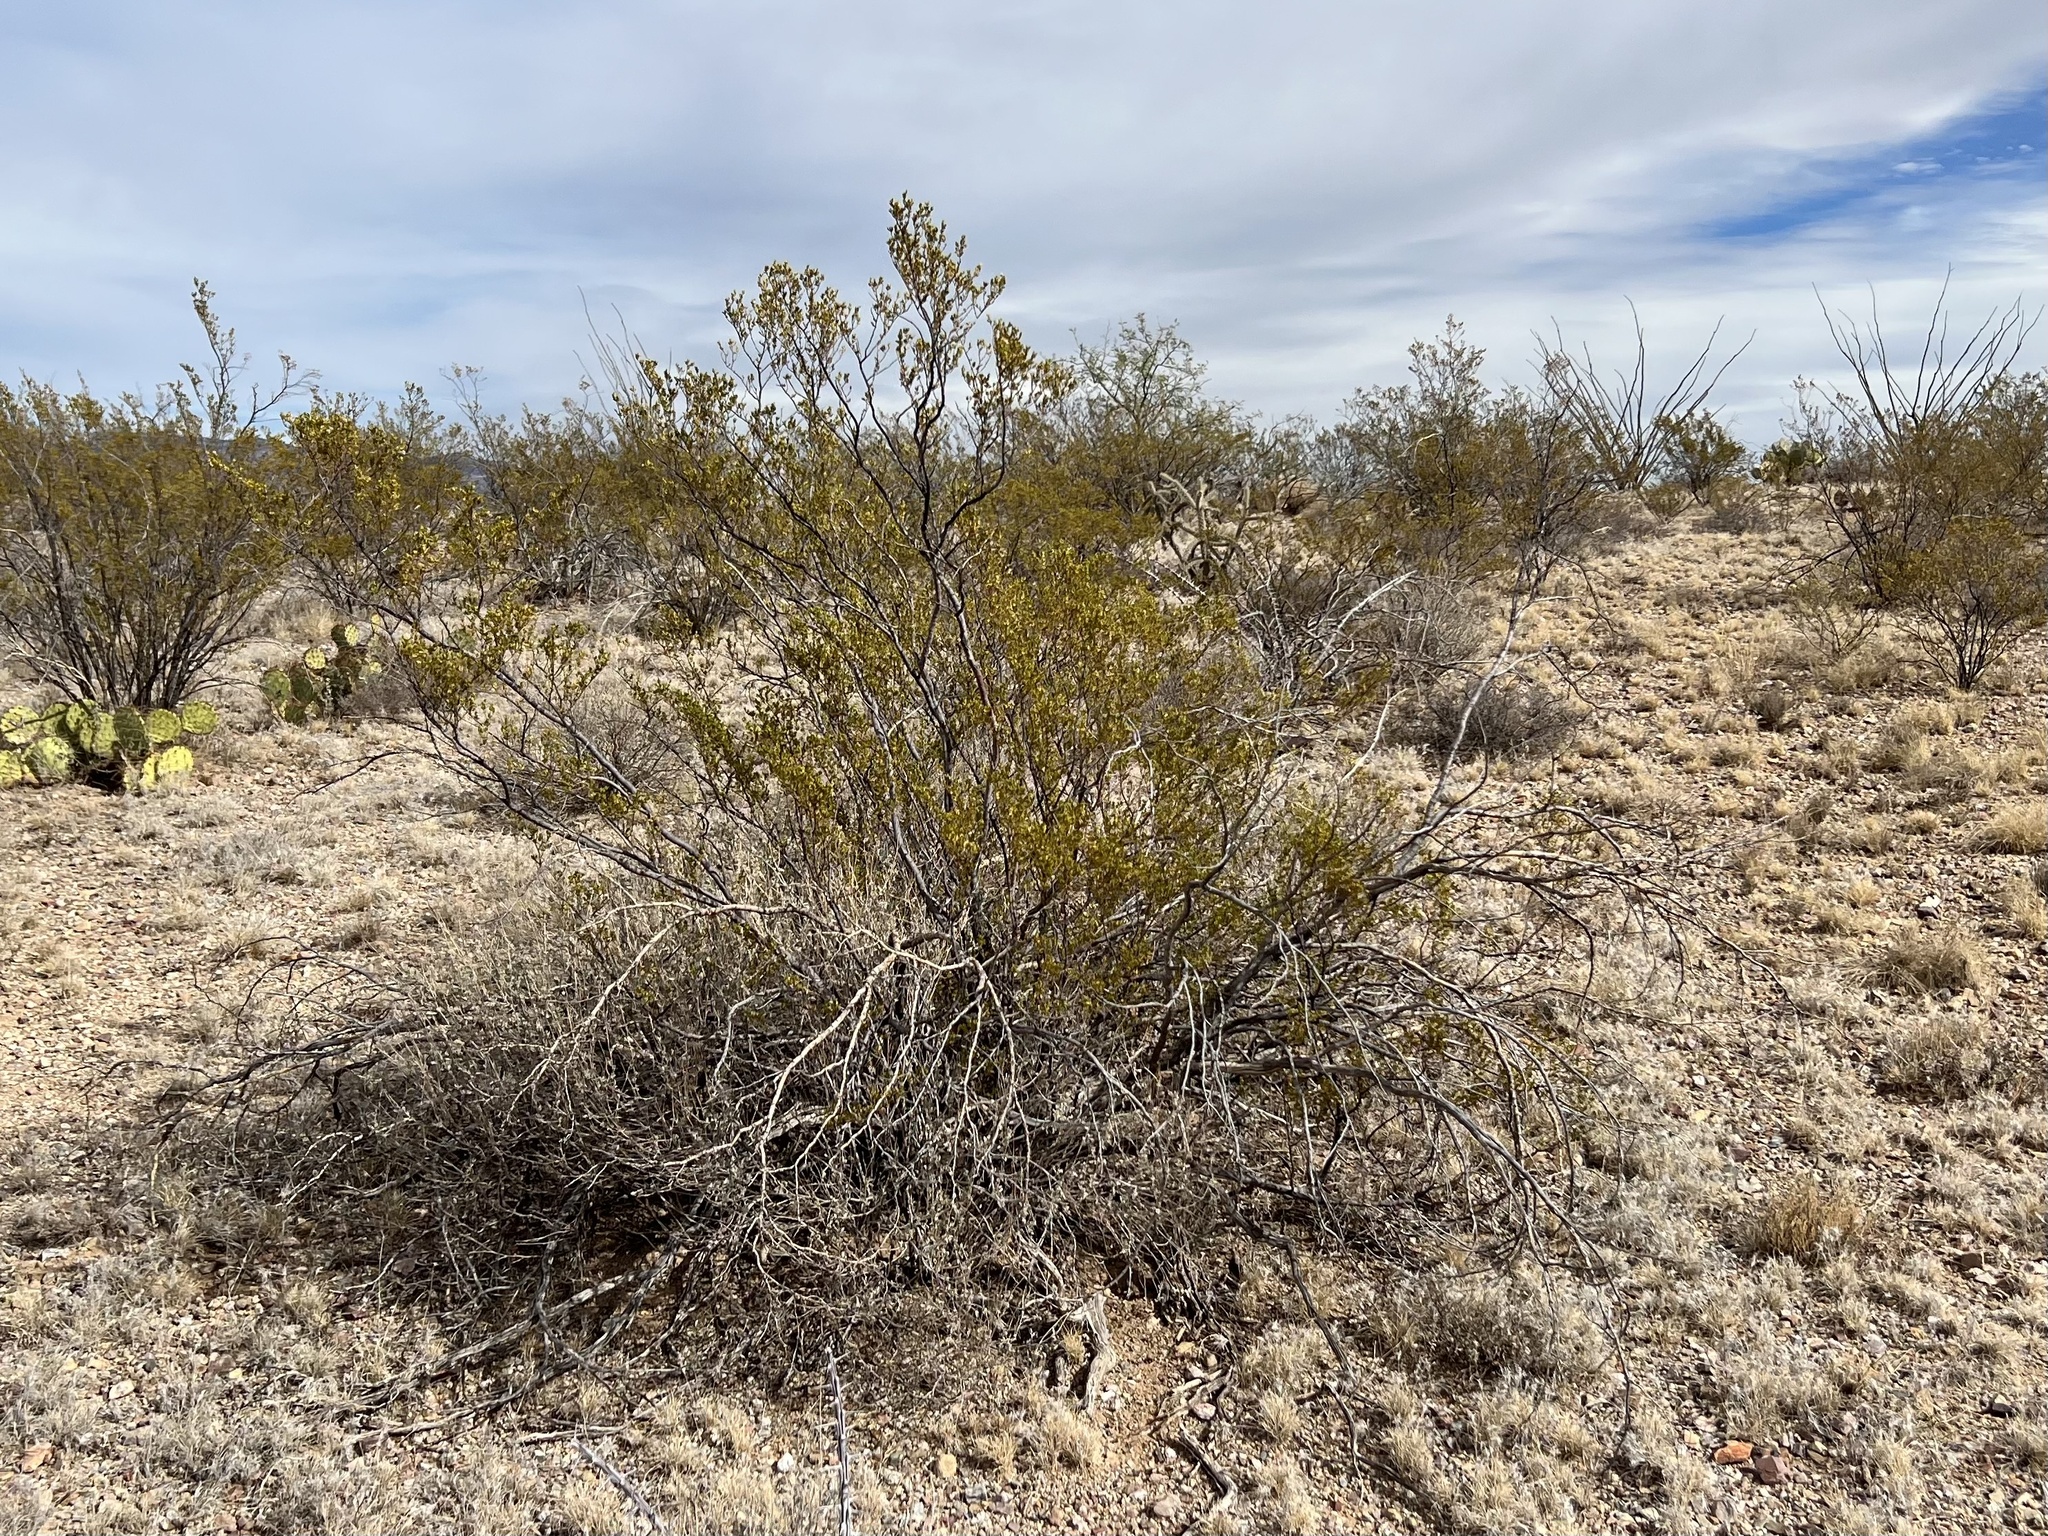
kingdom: Plantae
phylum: Tracheophyta
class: Magnoliopsida
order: Zygophyllales
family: Zygophyllaceae
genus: Larrea
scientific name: Larrea tridentata
